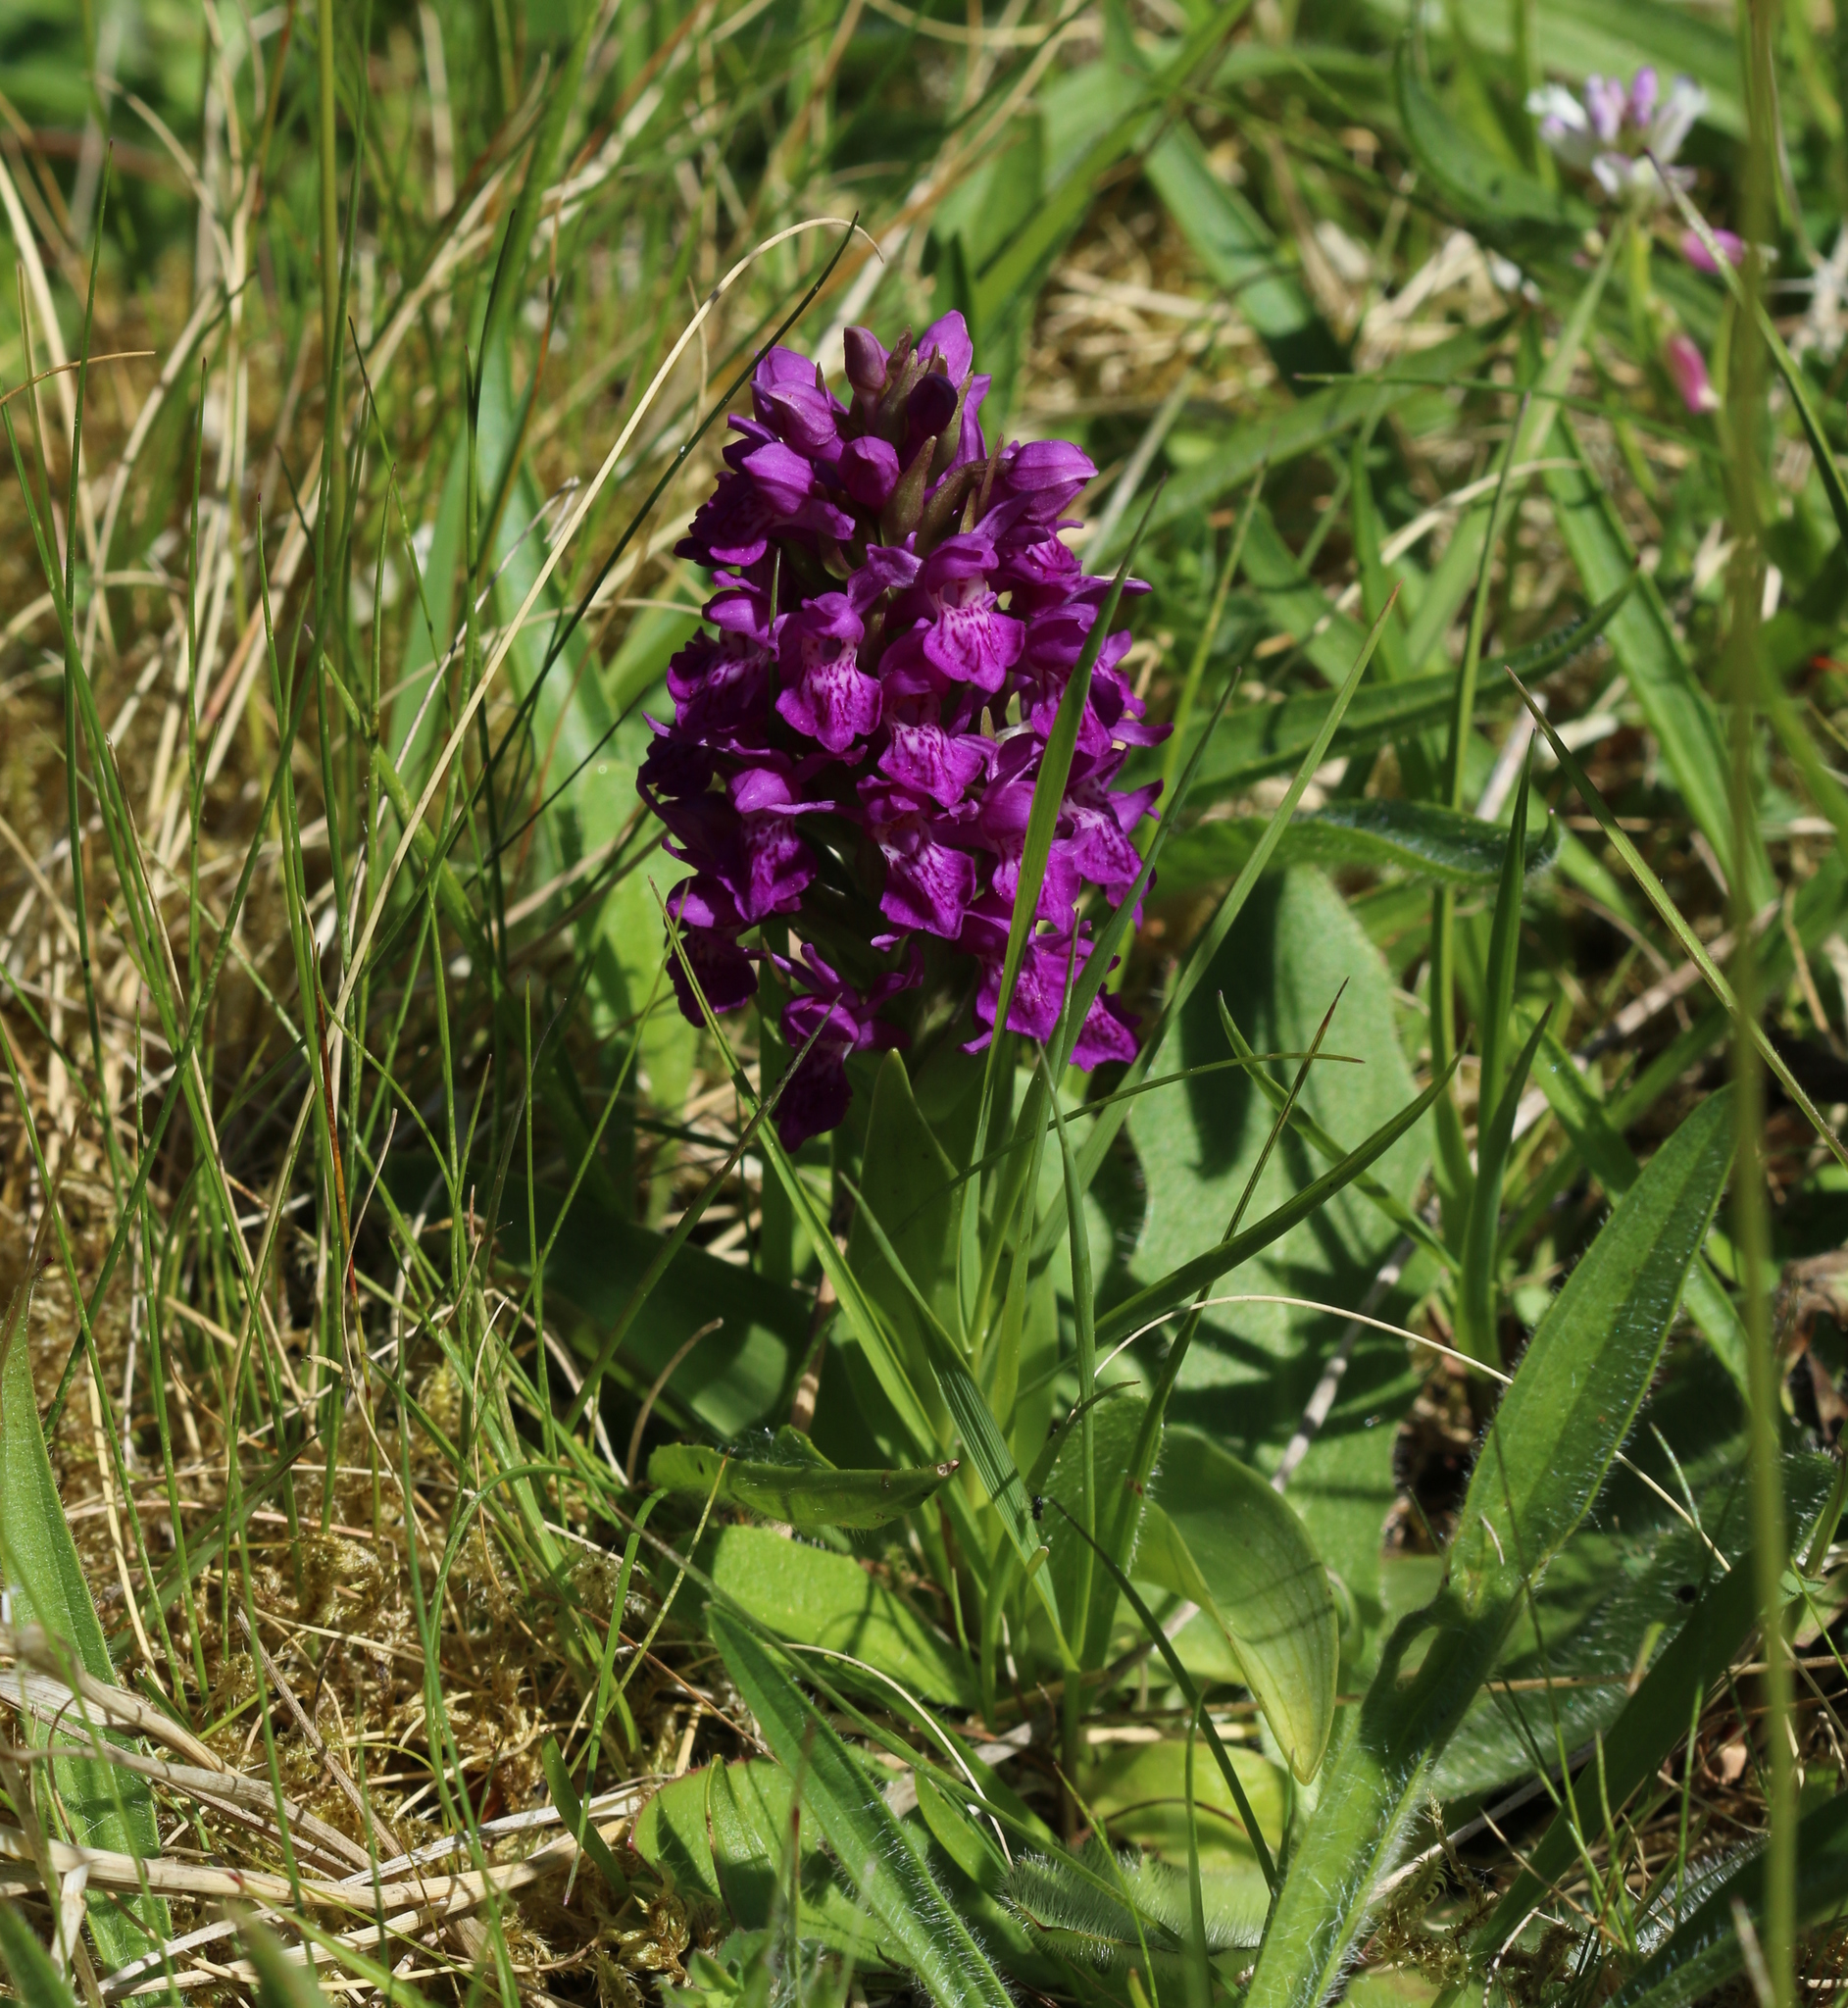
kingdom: Plantae
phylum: Tracheophyta
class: Liliopsida
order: Asparagales
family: Orchidaceae
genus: Dactylorhiza
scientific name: Dactylorhiza majalis
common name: Marsh orchid
